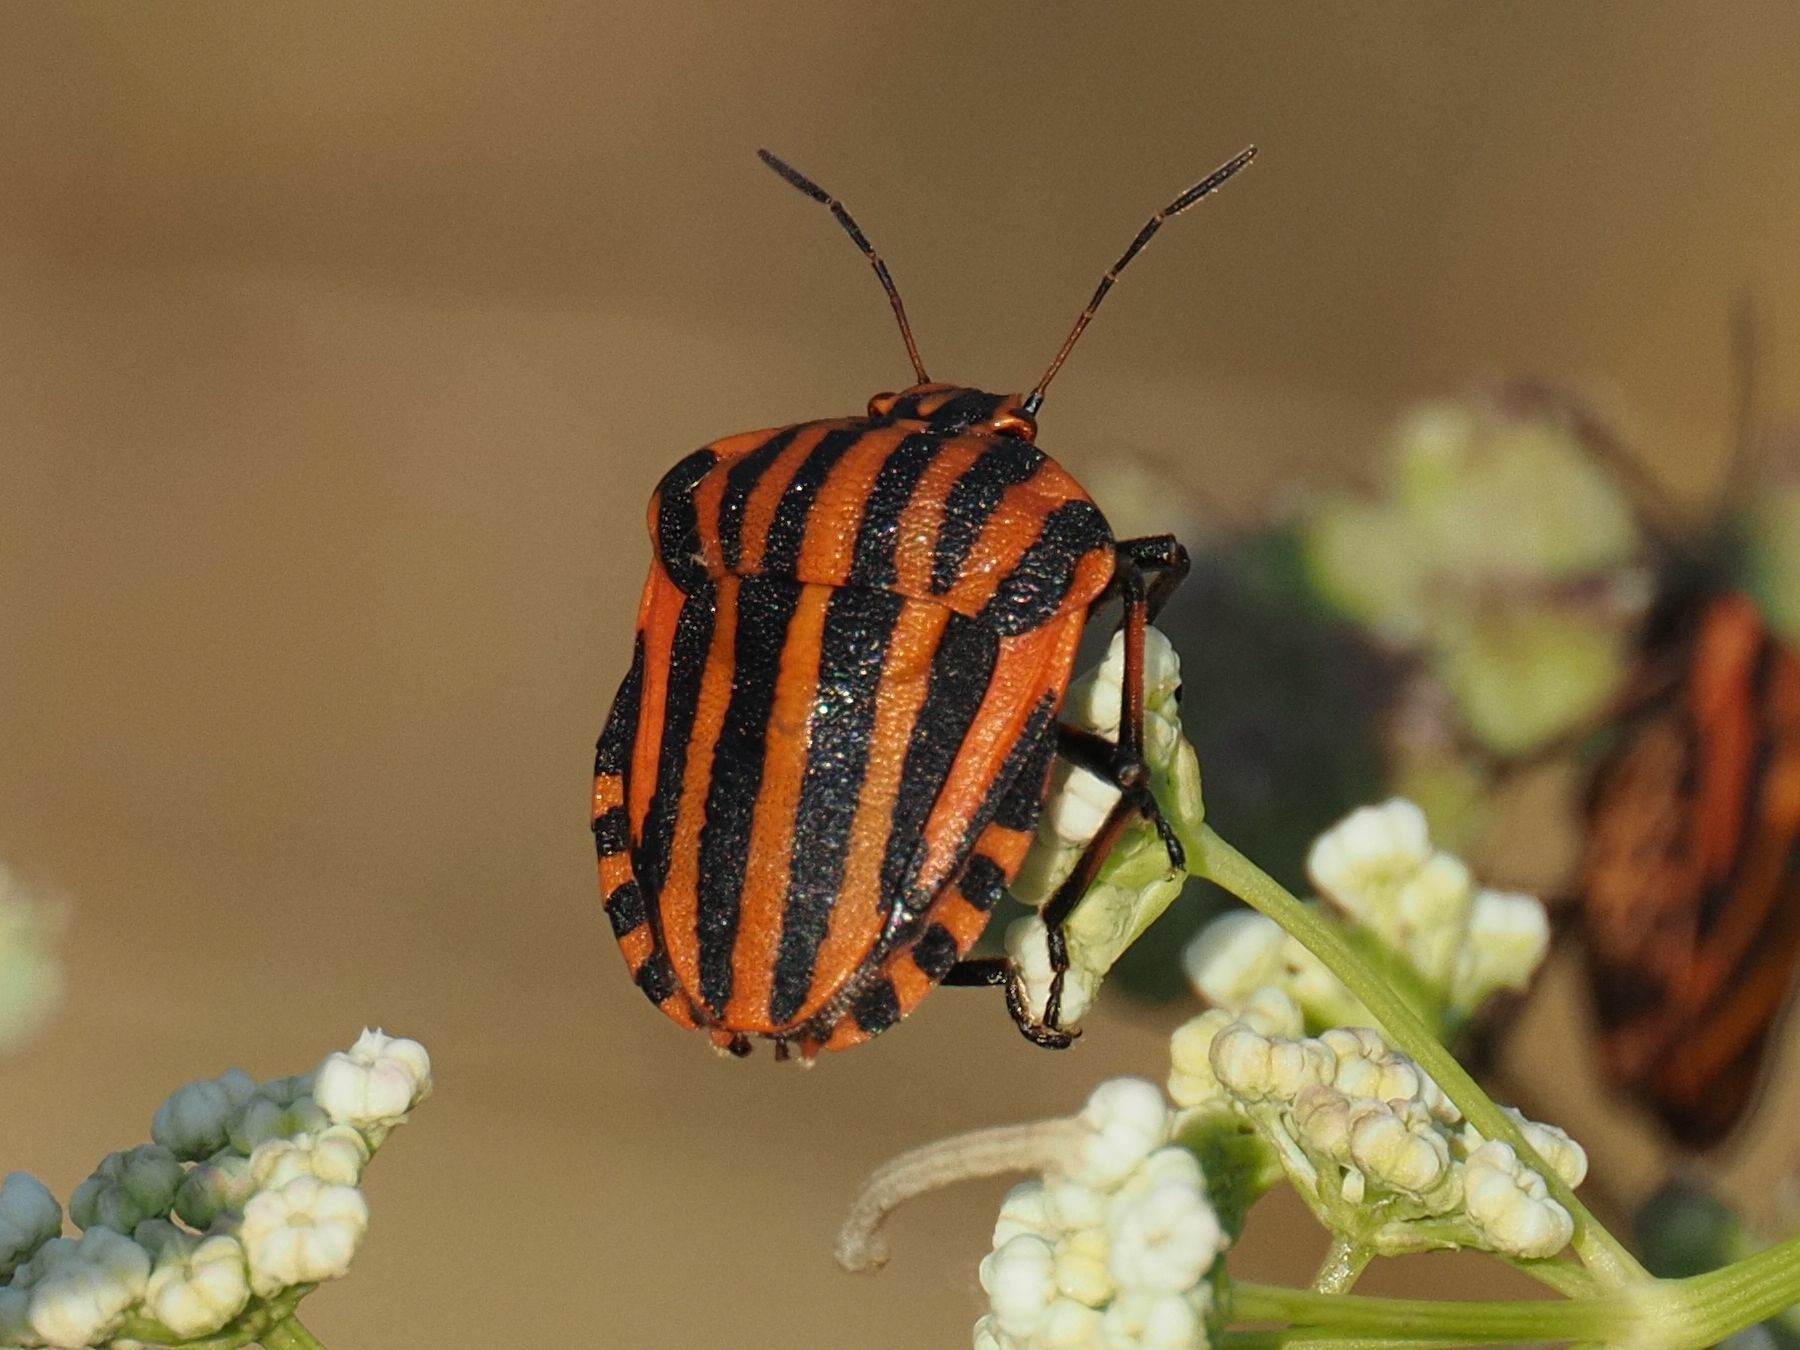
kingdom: Animalia
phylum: Arthropoda
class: Insecta
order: Hemiptera
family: Pentatomidae
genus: Graphosoma
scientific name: Graphosoma italicum
